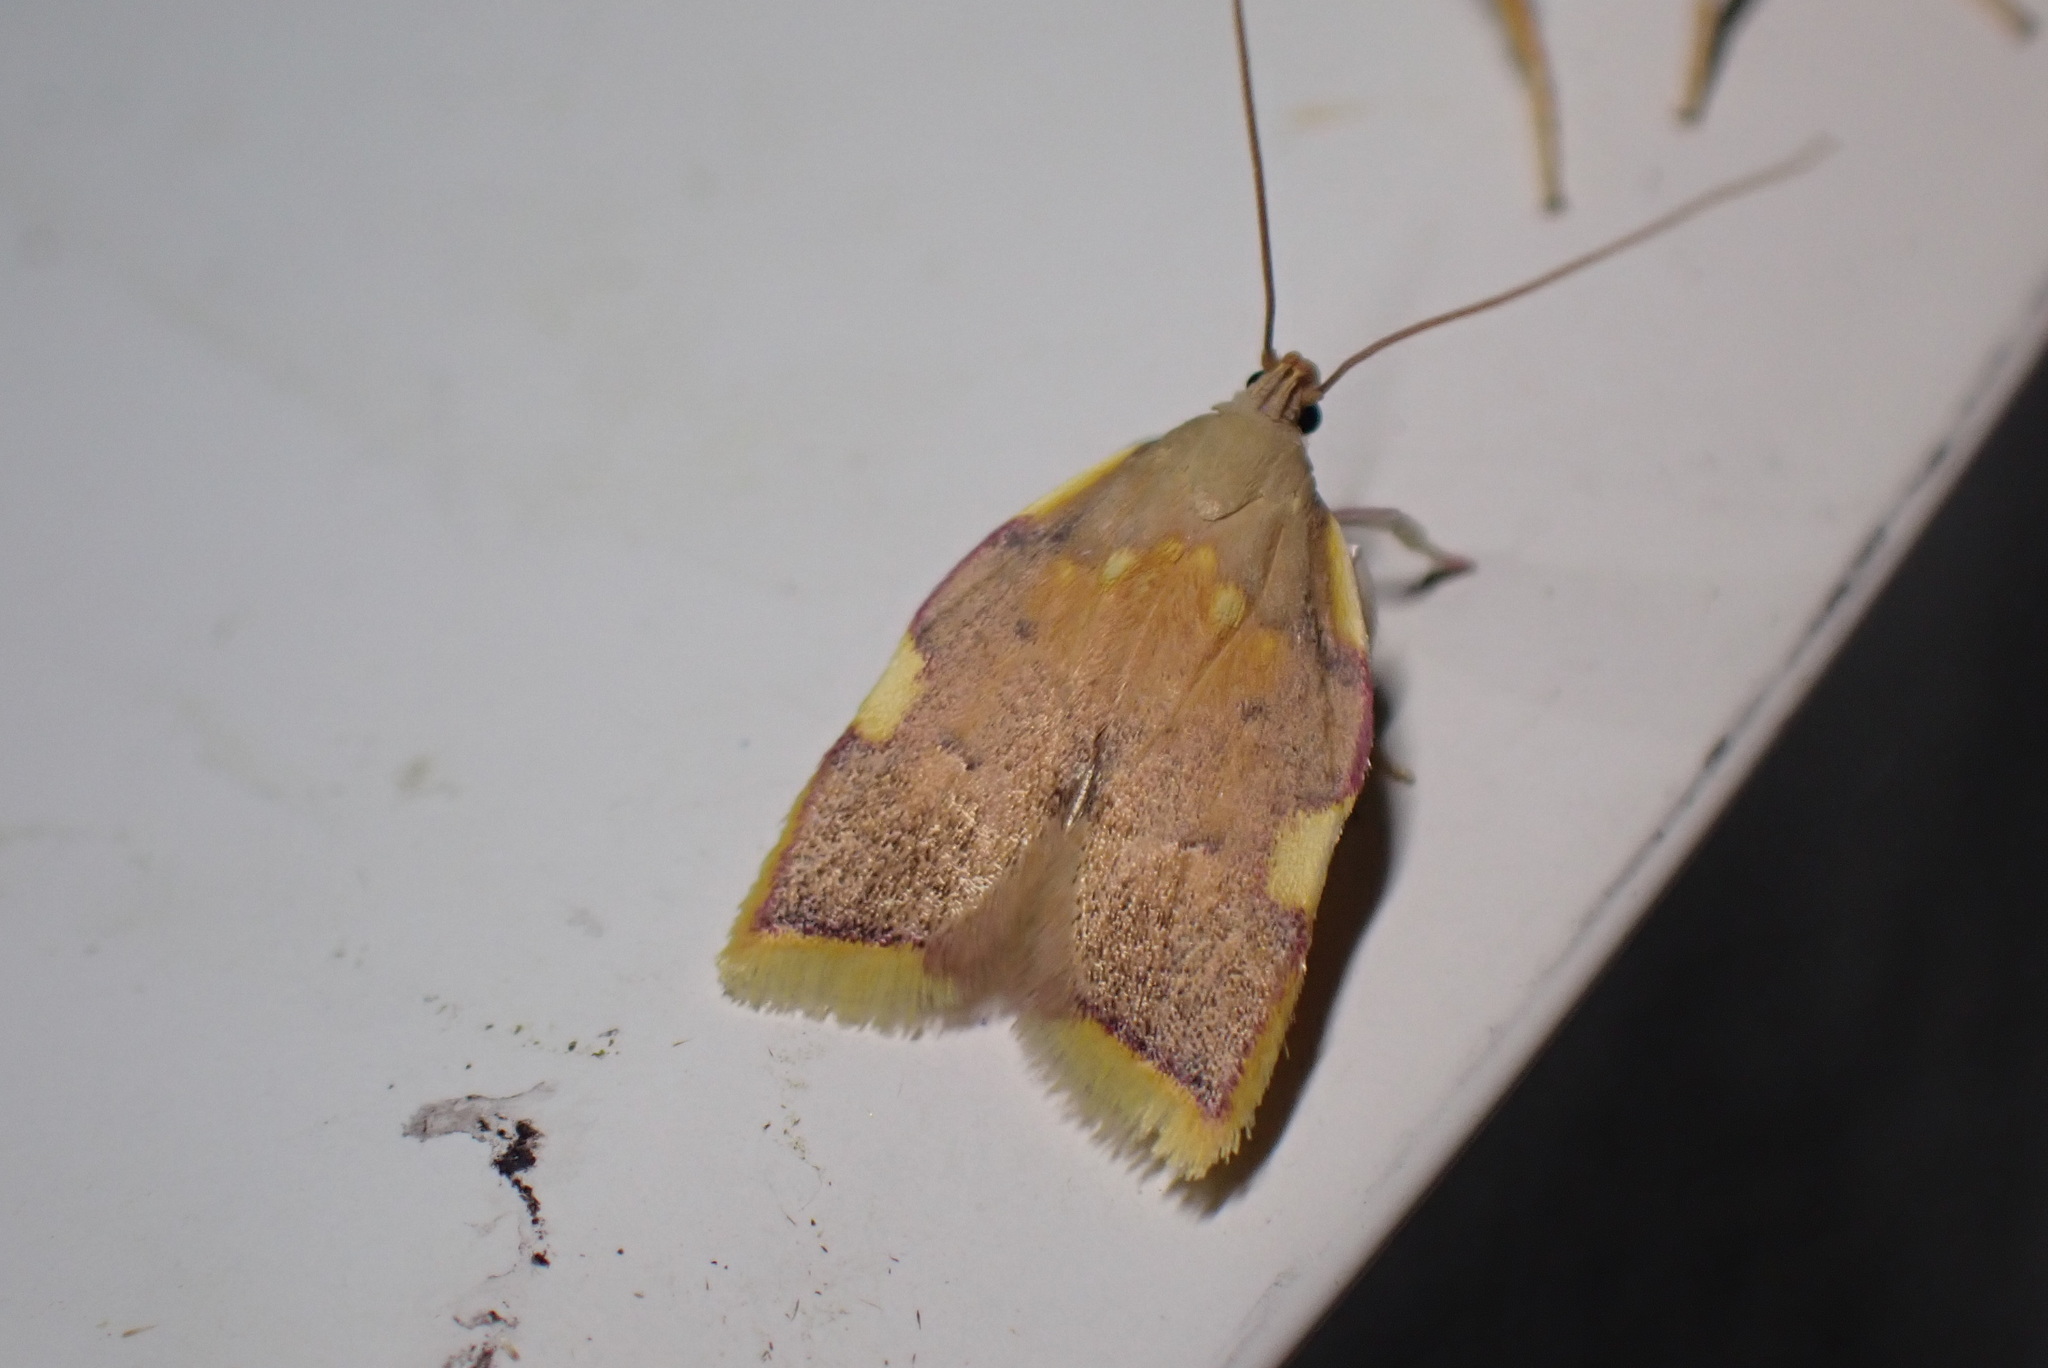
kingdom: Animalia
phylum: Arthropoda
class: Insecta
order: Lepidoptera
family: Peleopodidae
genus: Carcina
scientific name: Carcina quercana
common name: Moth
